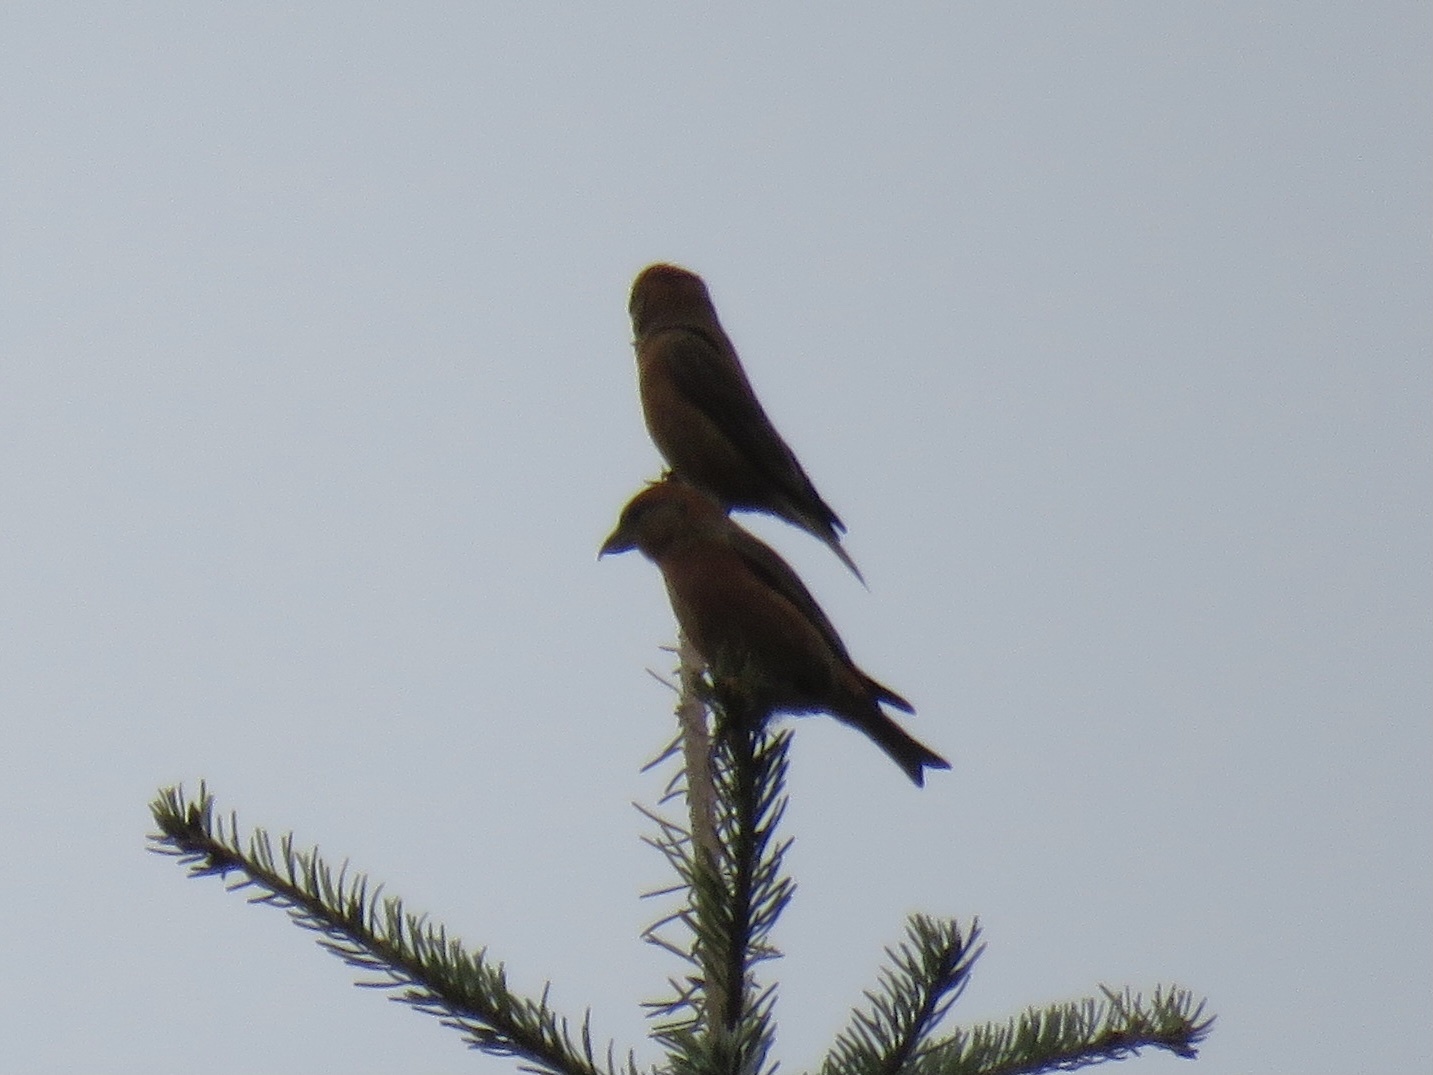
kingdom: Animalia
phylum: Chordata
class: Aves
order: Passeriformes
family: Fringillidae
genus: Loxia
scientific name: Loxia curvirostra
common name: Red crossbill
